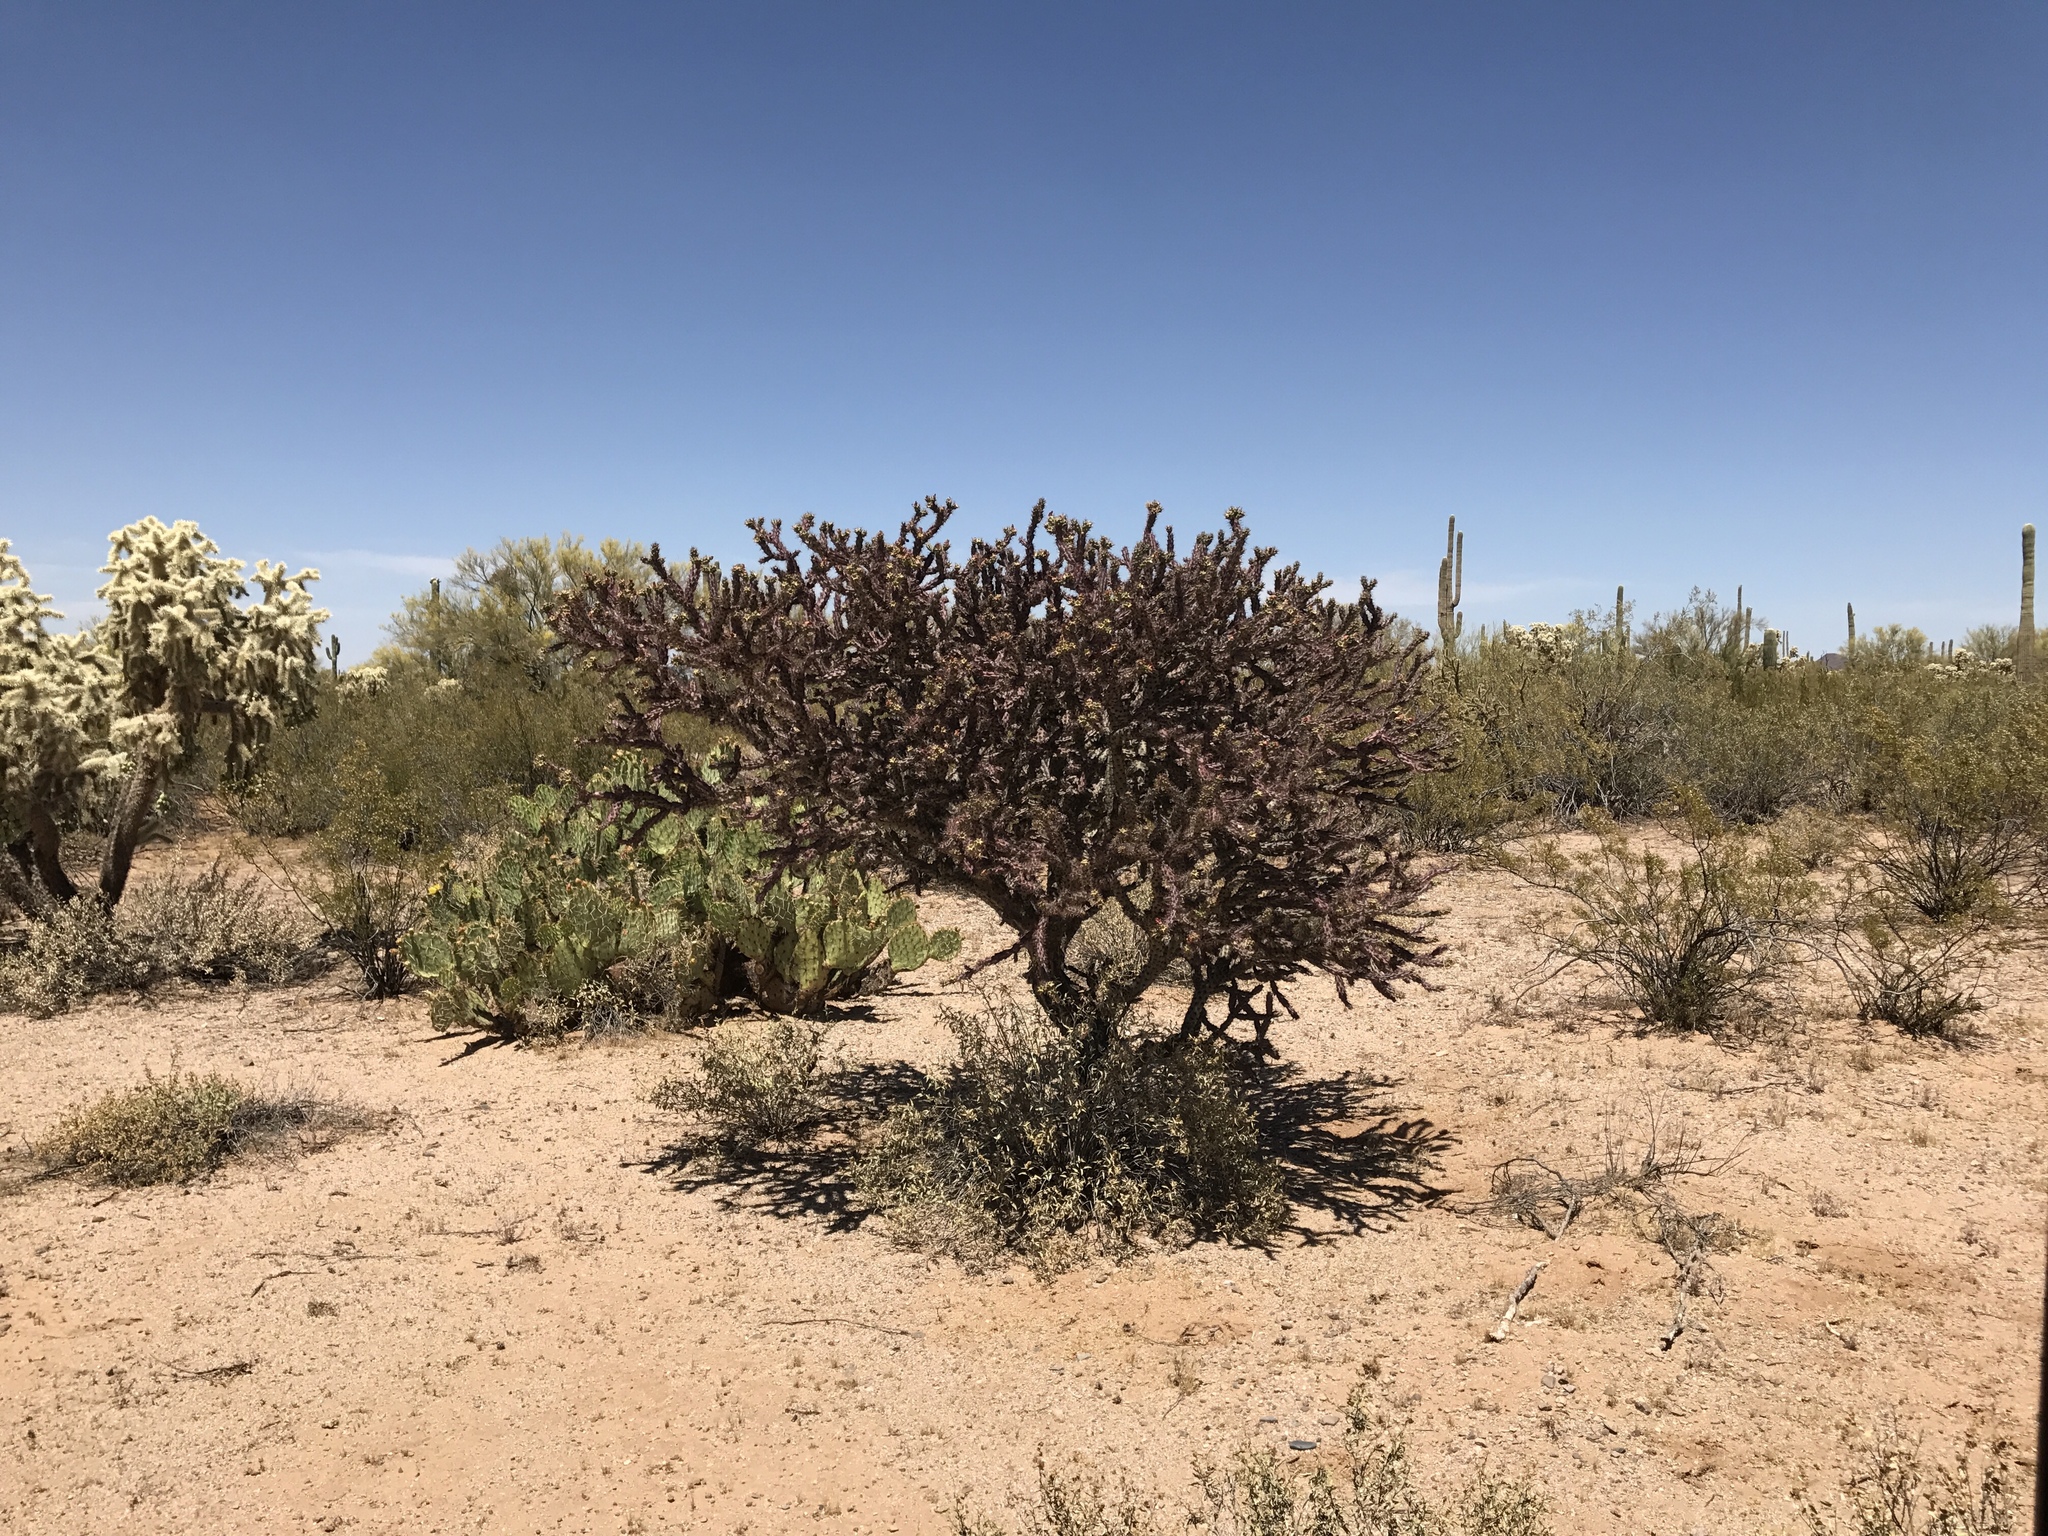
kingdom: Plantae
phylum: Tracheophyta
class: Magnoliopsida
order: Caryophyllales
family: Cactaceae
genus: Cylindropuntia
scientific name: Cylindropuntia thurberi
